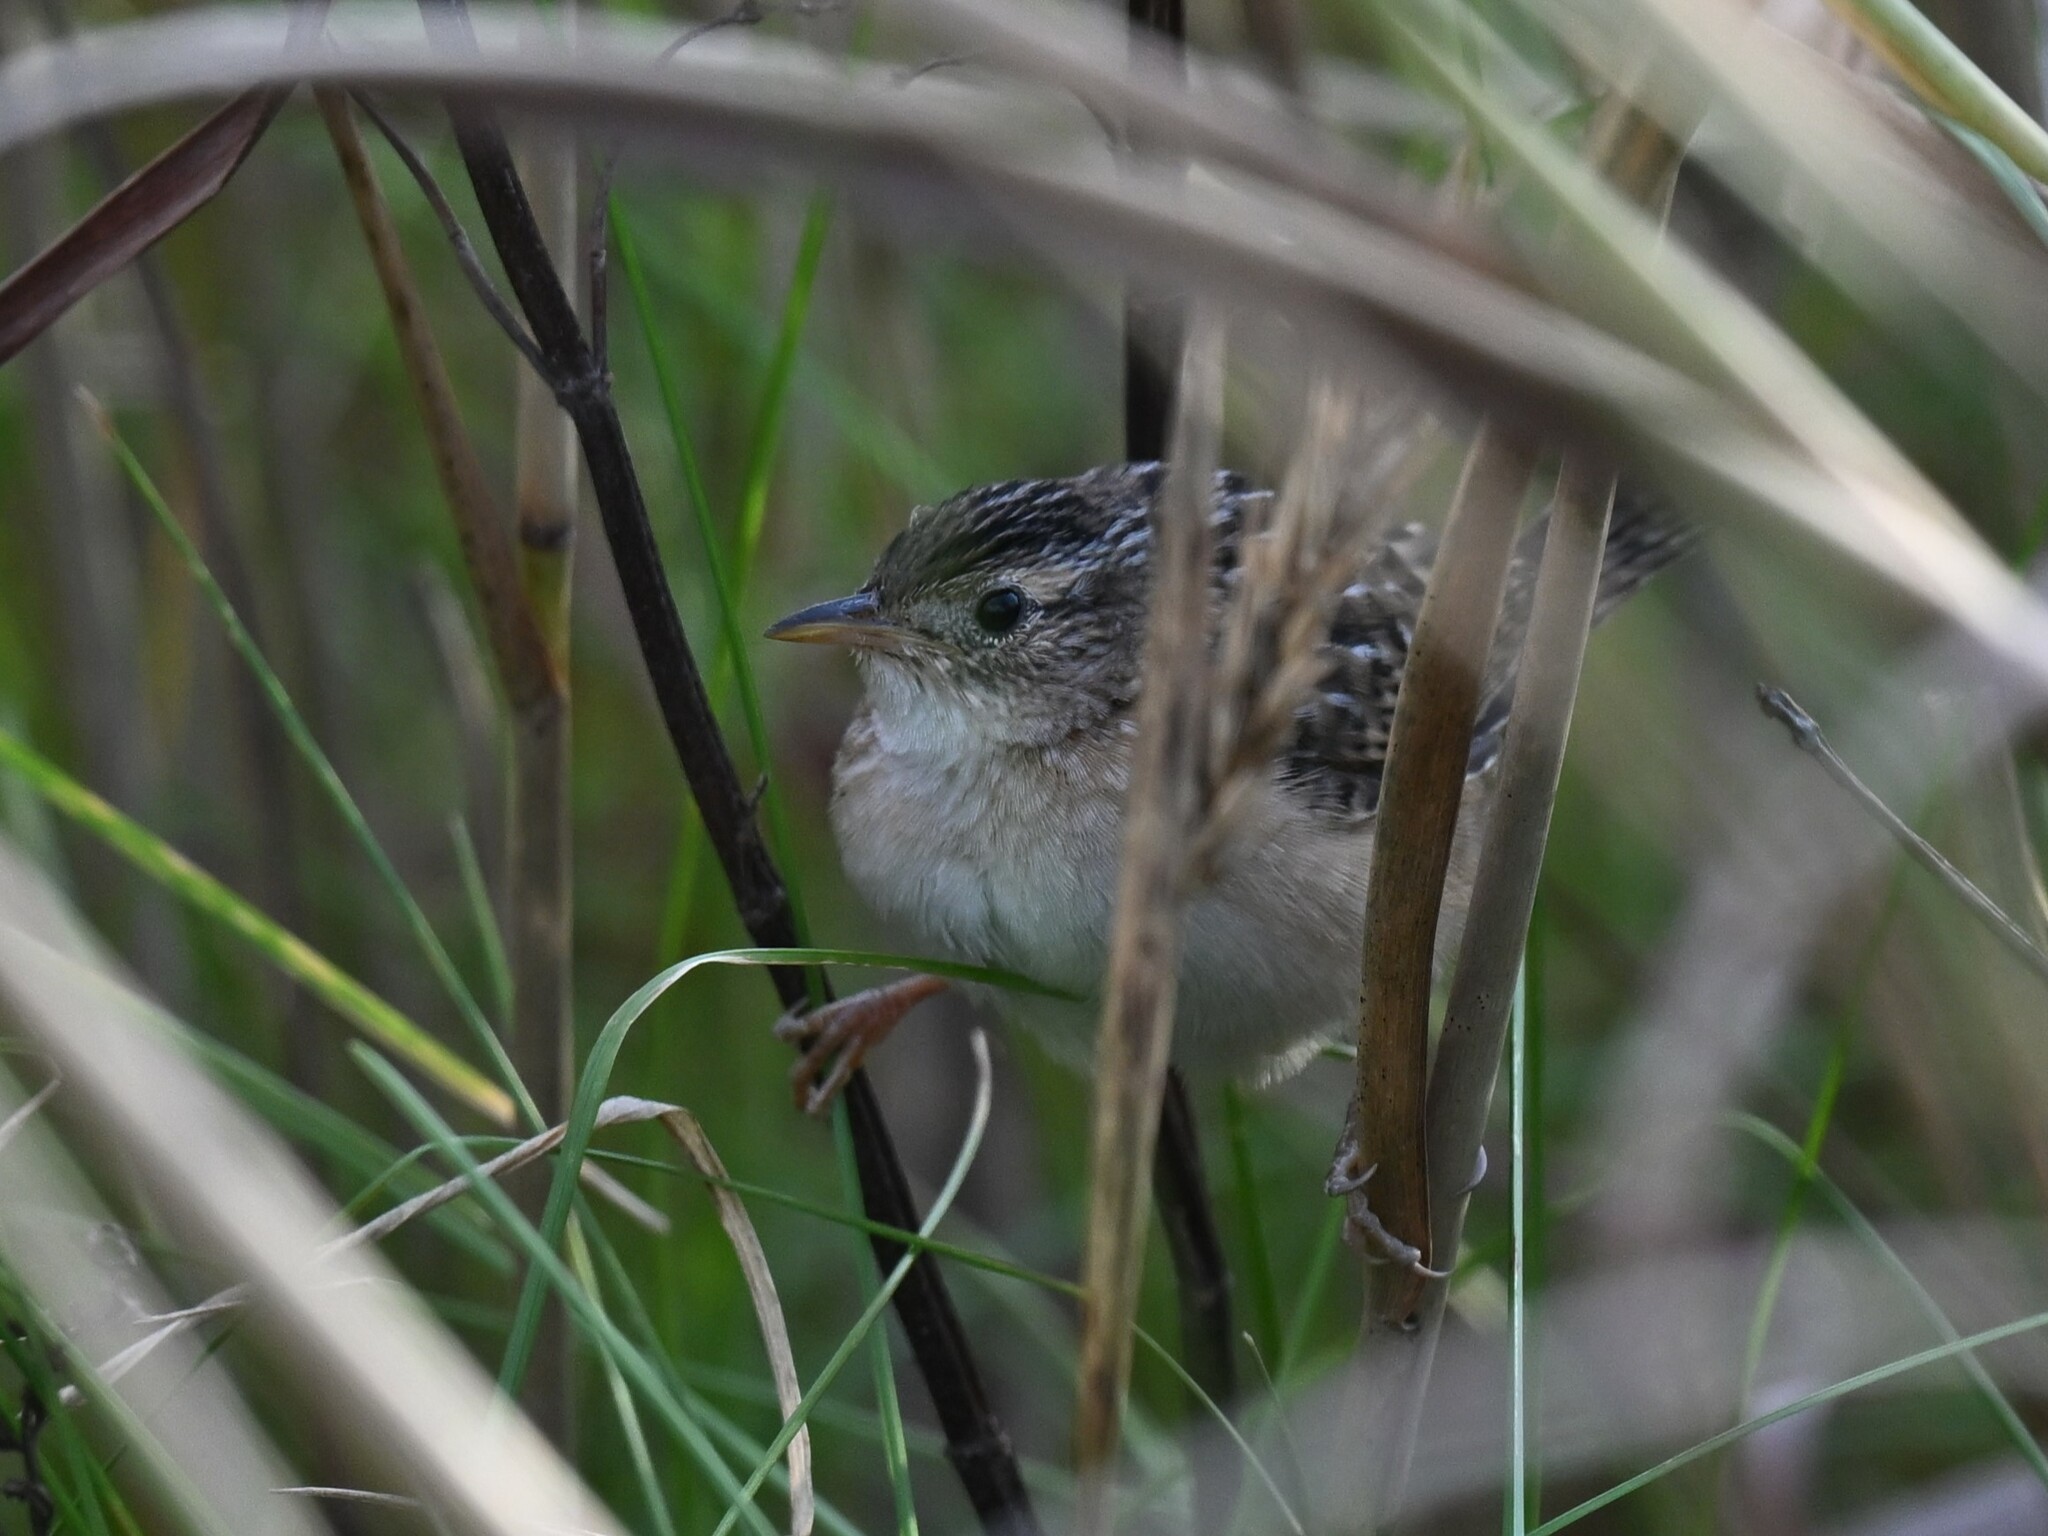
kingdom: Animalia
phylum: Chordata
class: Aves
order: Passeriformes
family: Troglodytidae
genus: Cistothorus
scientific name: Cistothorus platensis
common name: Sedge wren
